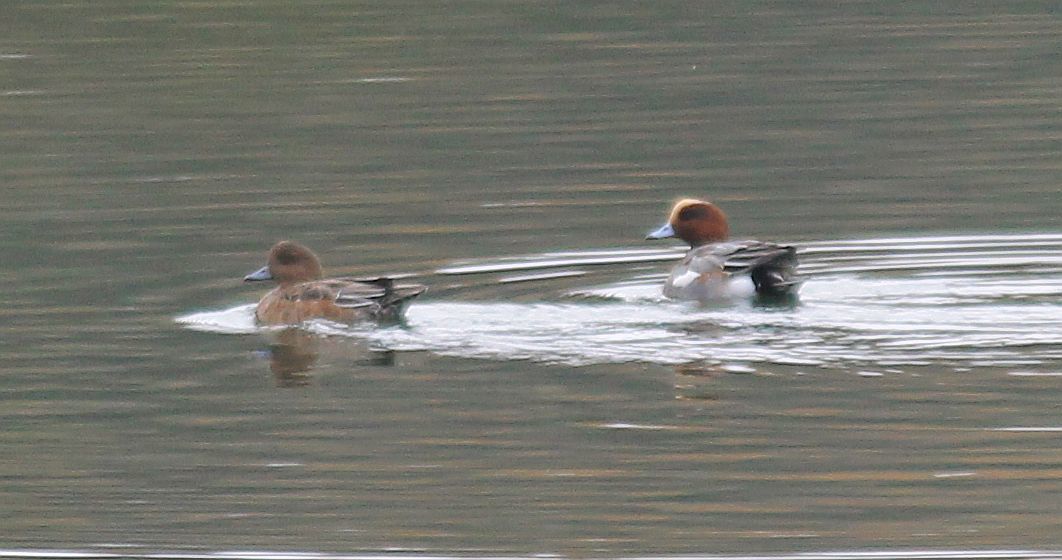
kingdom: Animalia
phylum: Chordata
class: Aves
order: Anseriformes
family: Anatidae
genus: Mareca
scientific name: Mareca penelope
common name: Eurasian wigeon
